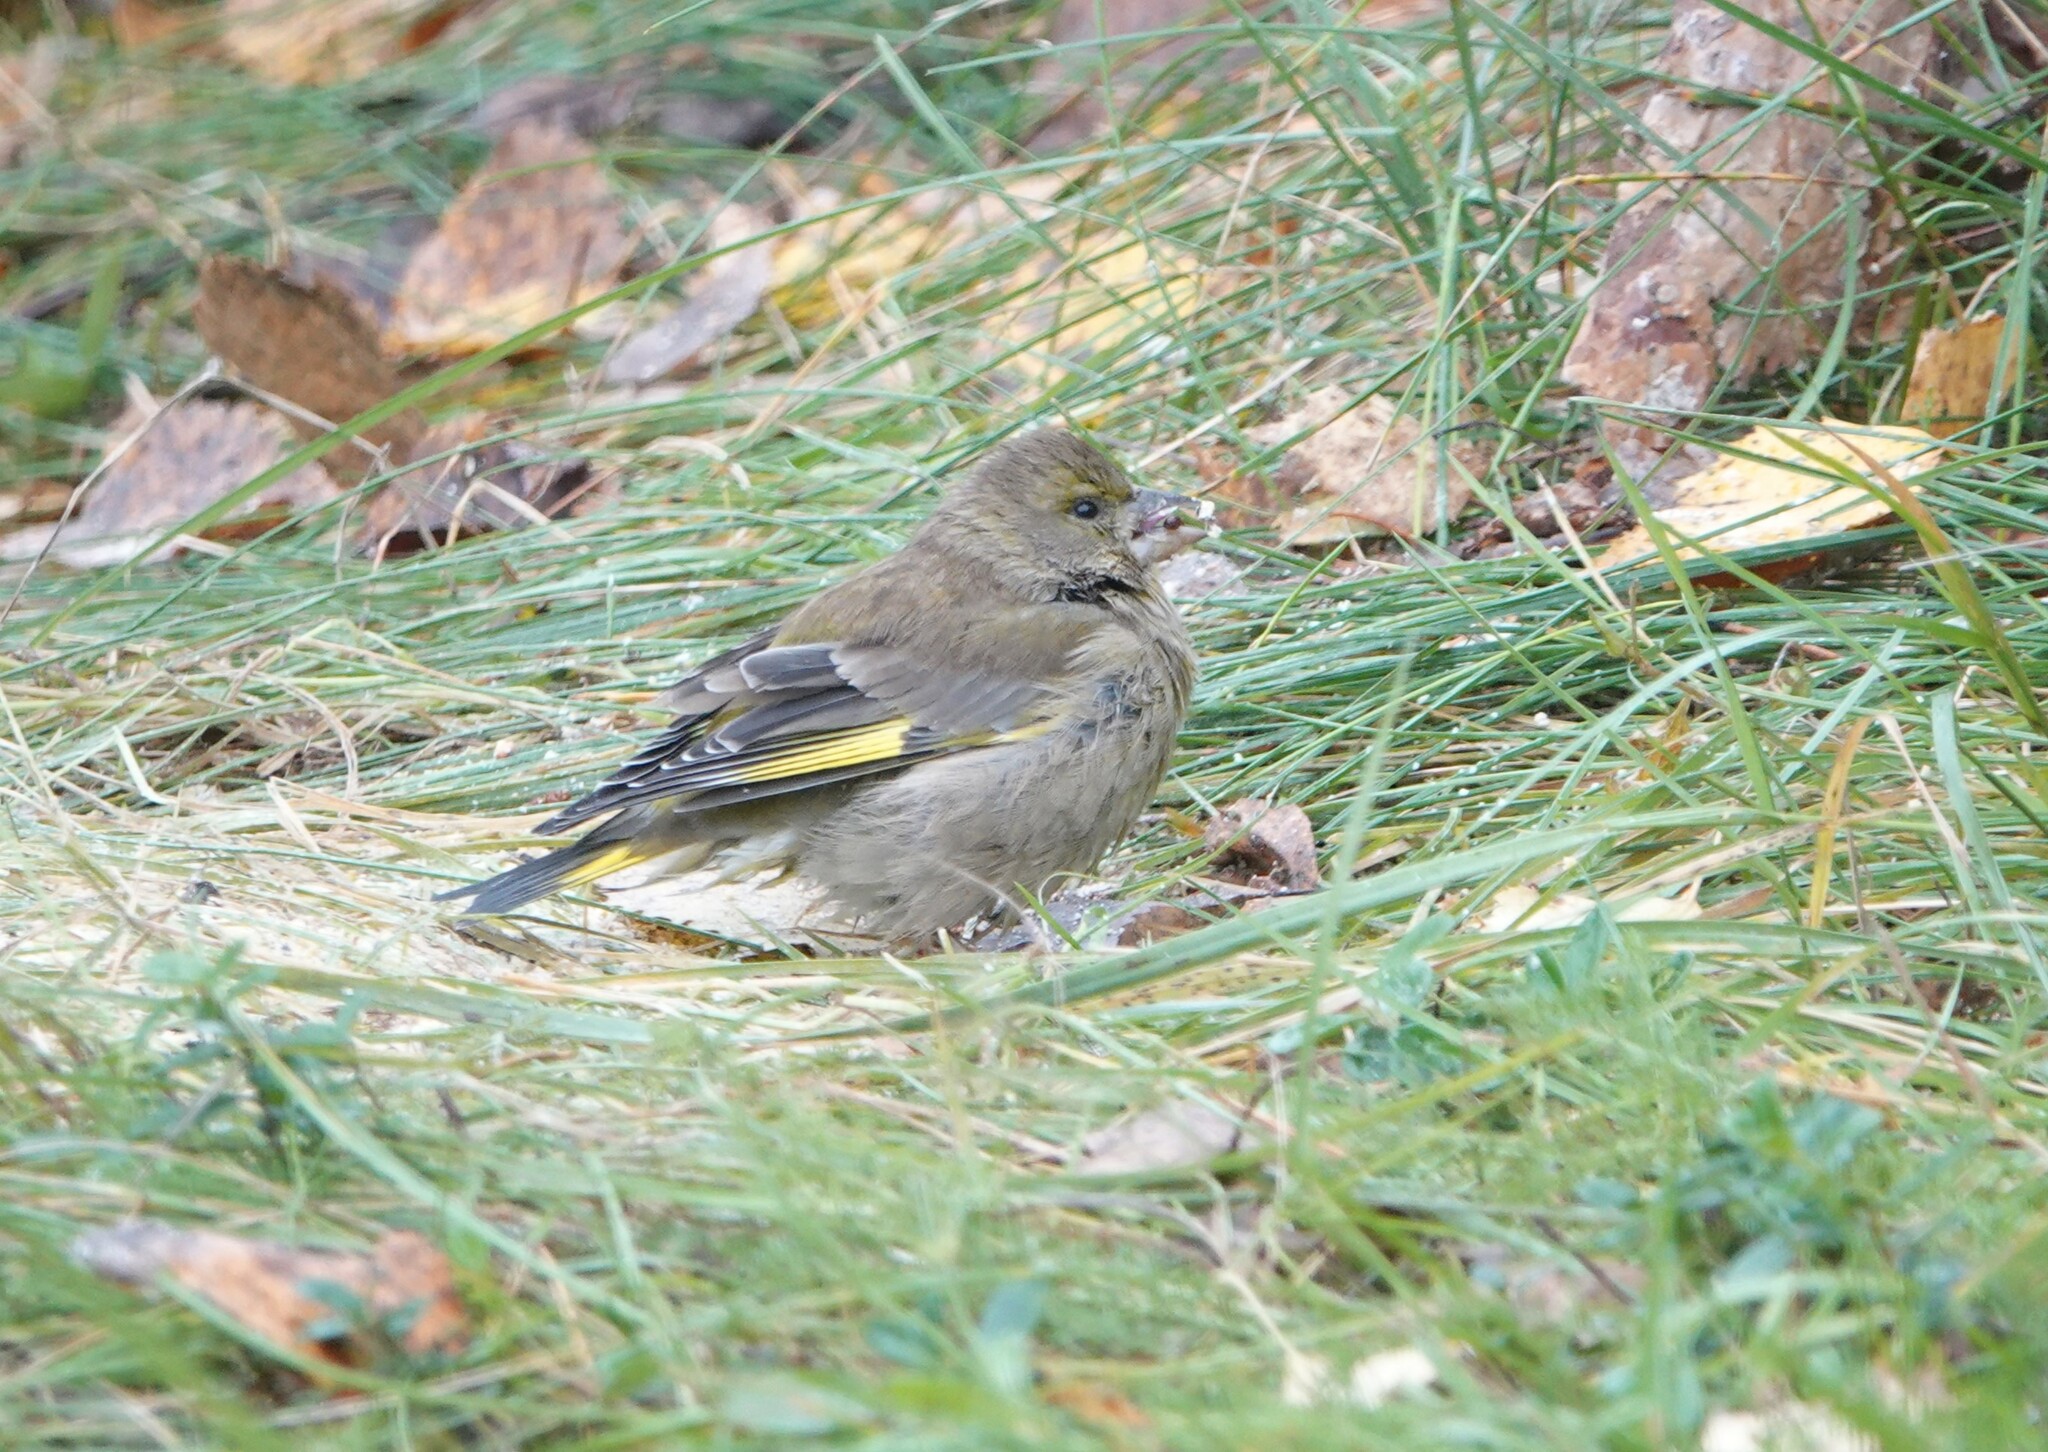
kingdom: Plantae
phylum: Tracheophyta
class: Liliopsida
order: Poales
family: Poaceae
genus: Chloris
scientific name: Chloris chloris
